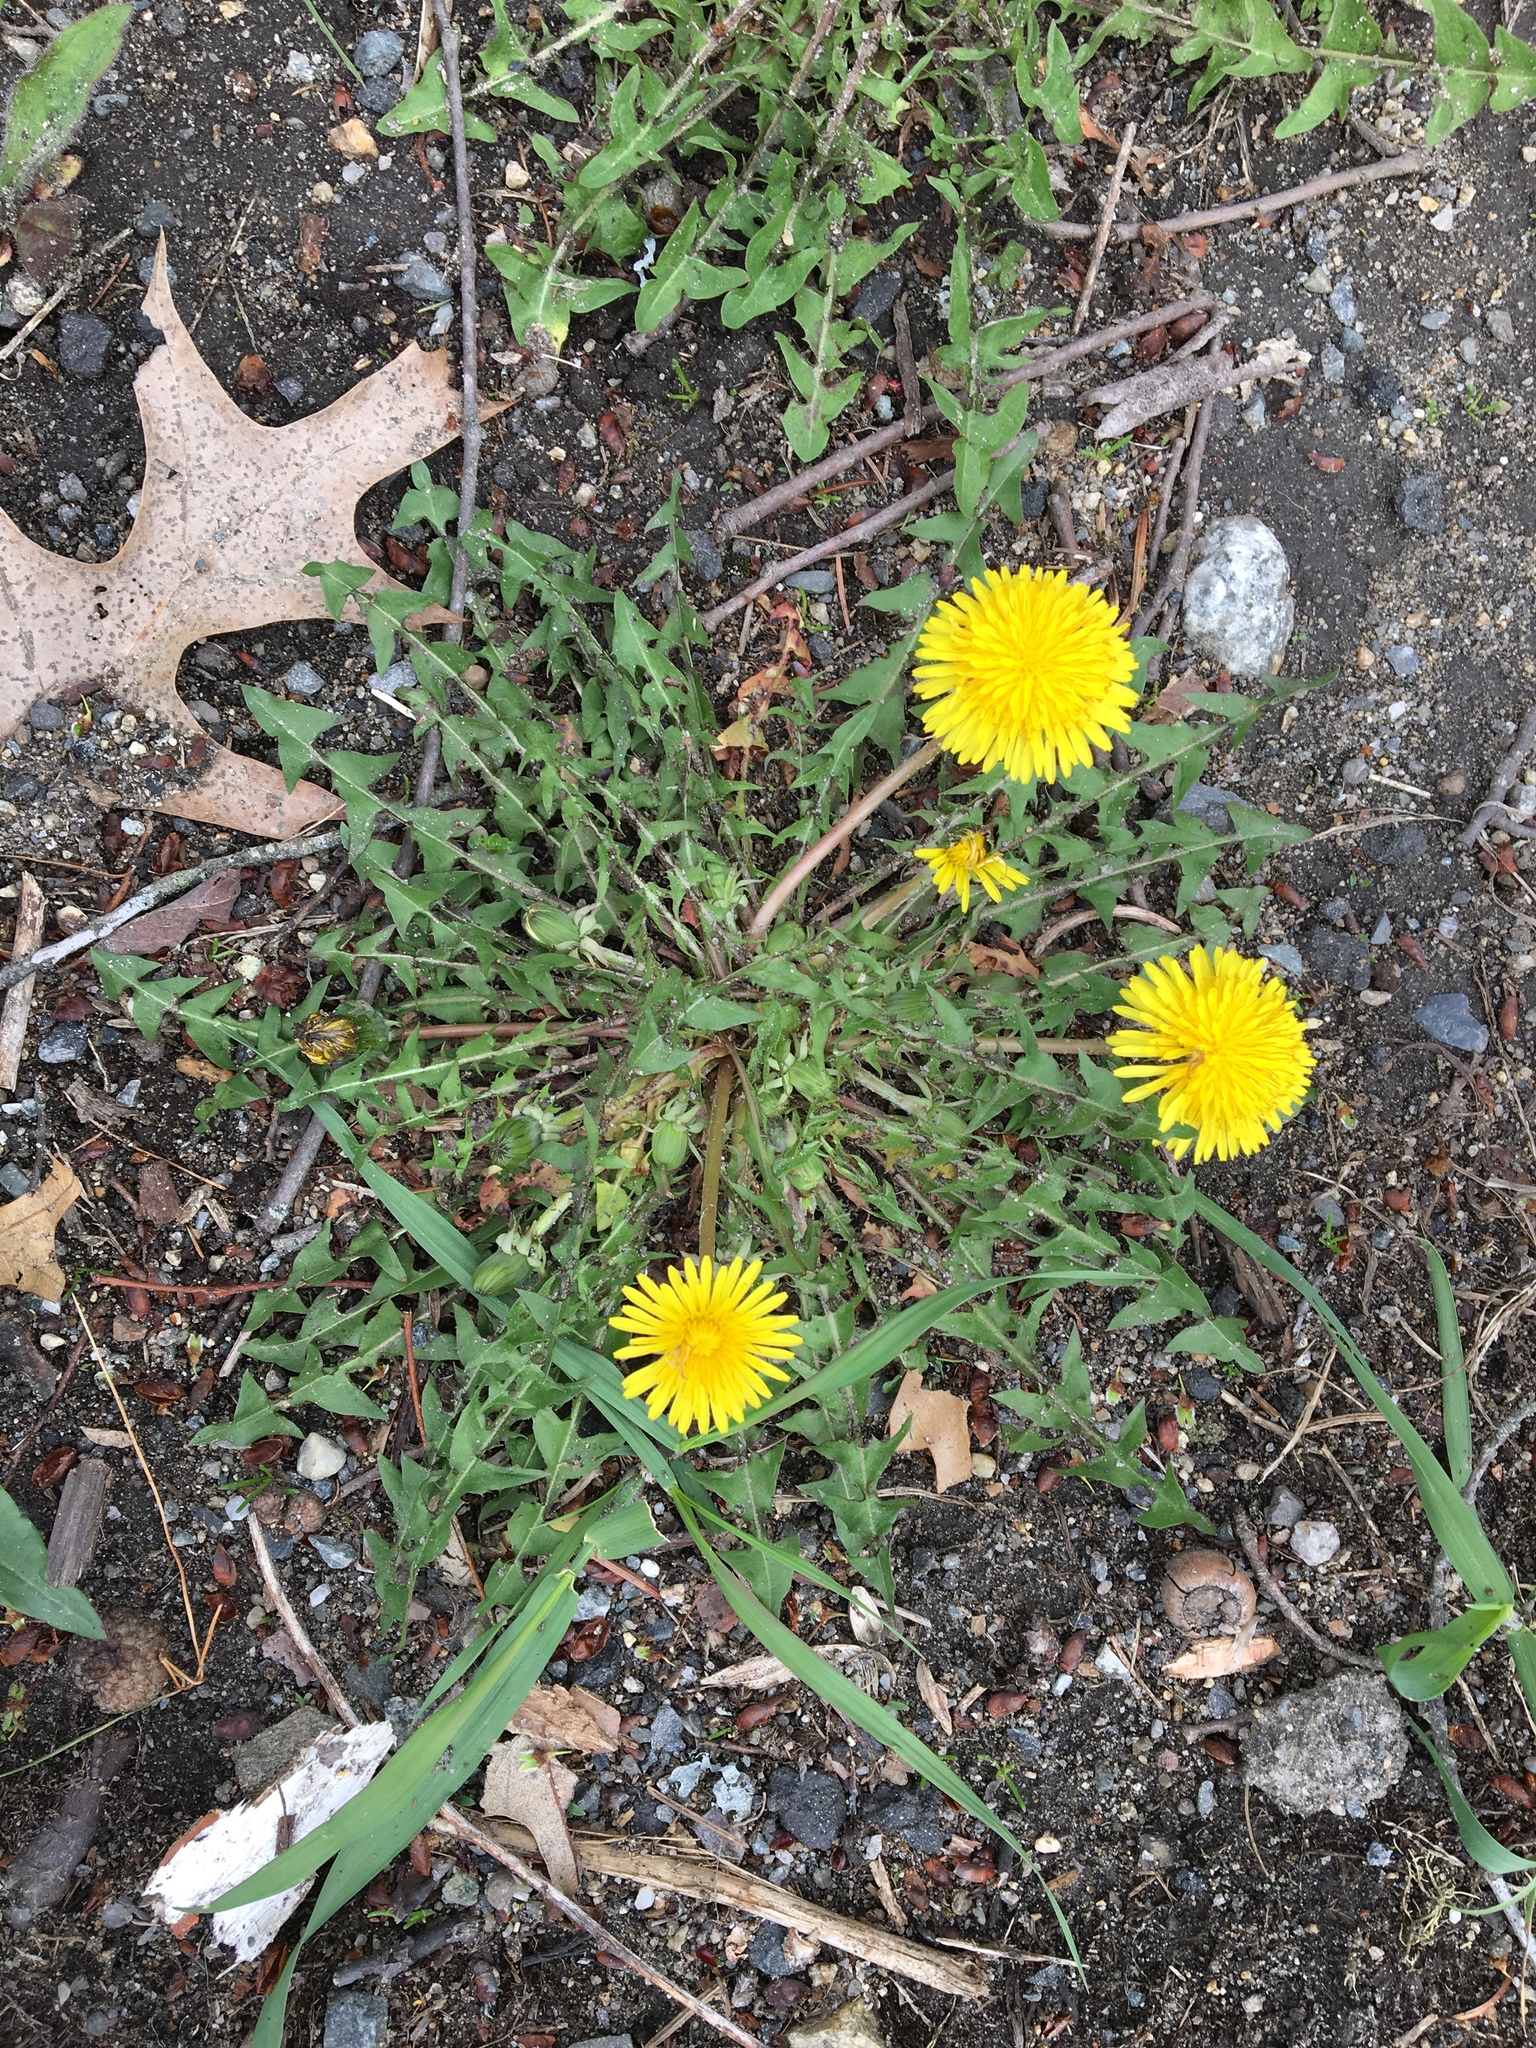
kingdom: Plantae
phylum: Tracheophyta
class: Magnoliopsida
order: Asterales
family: Asteraceae
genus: Taraxacum
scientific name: Taraxacum officinale
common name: Common dandelion
